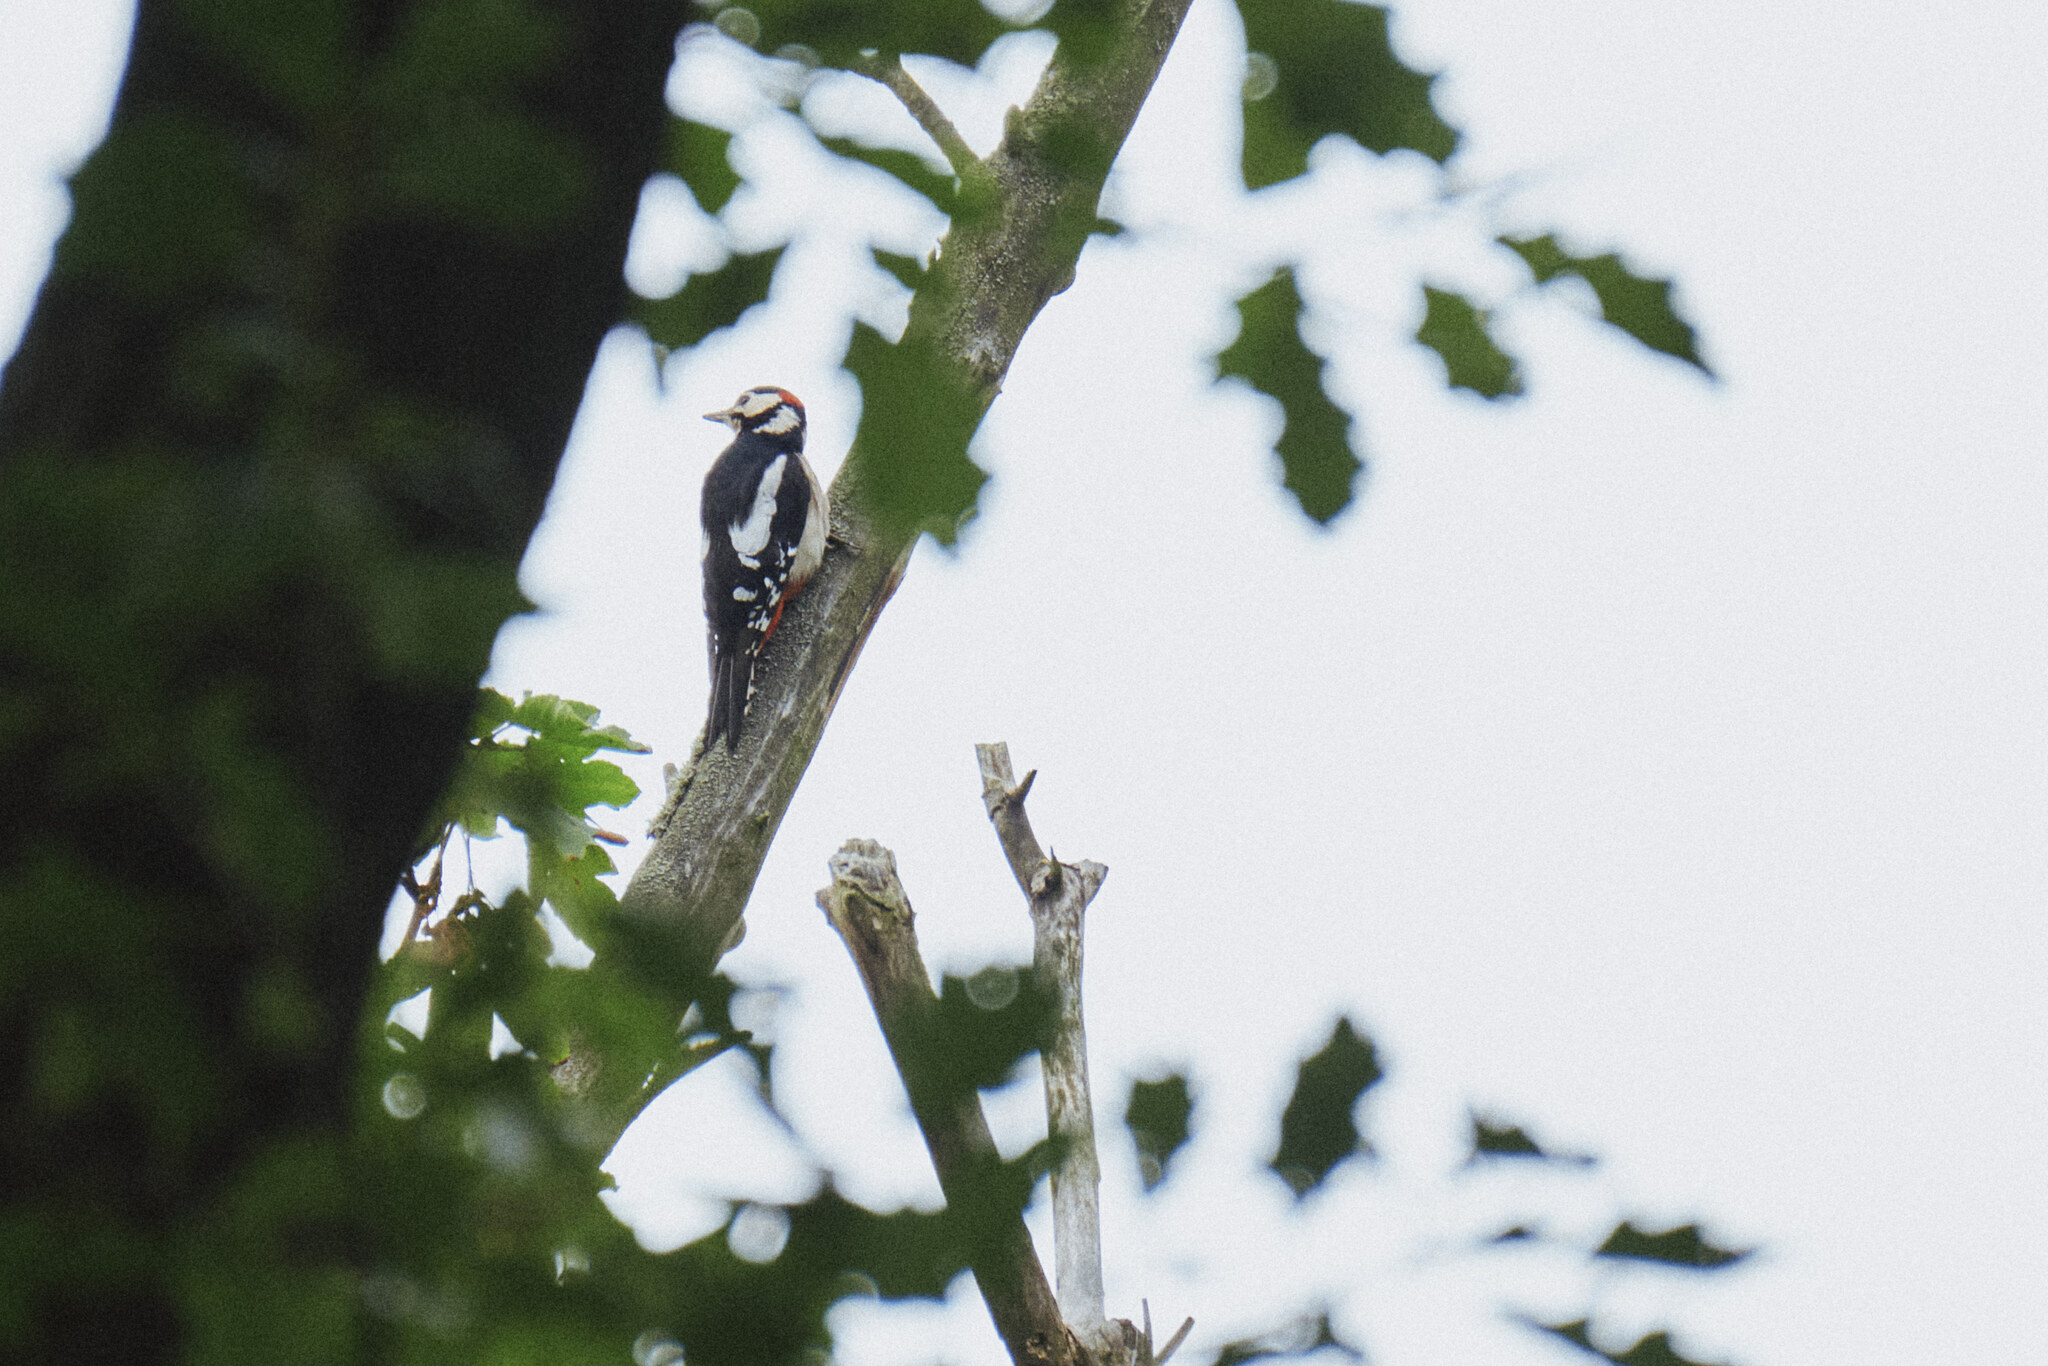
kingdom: Animalia
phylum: Chordata
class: Aves
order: Piciformes
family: Picidae
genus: Dendrocopos
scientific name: Dendrocopos major
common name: Great spotted woodpecker
